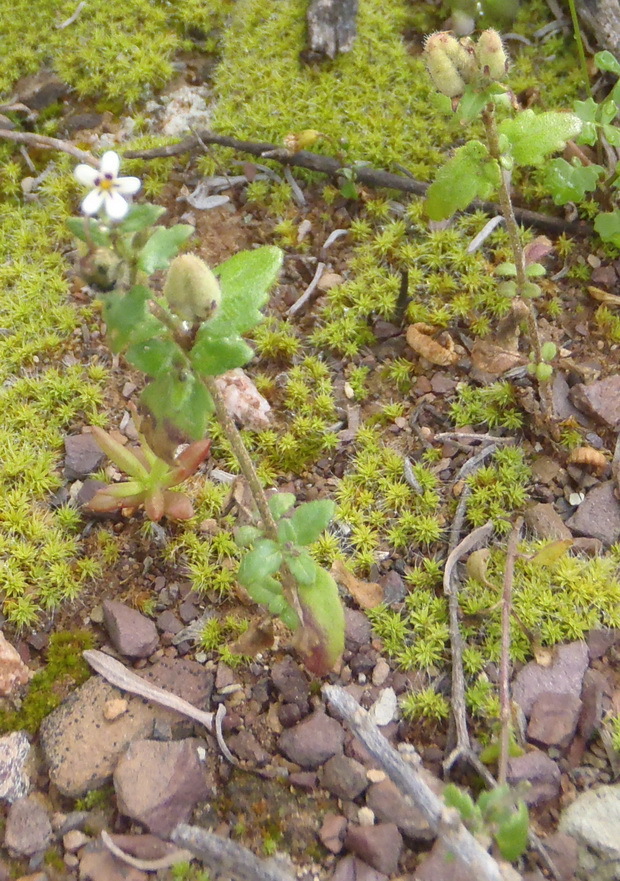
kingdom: Plantae
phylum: Tracheophyta
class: Magnoliopsida
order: Lamiales
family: Scrophulariaceae
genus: Lyperia
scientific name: Lyperia antirrhinoides
